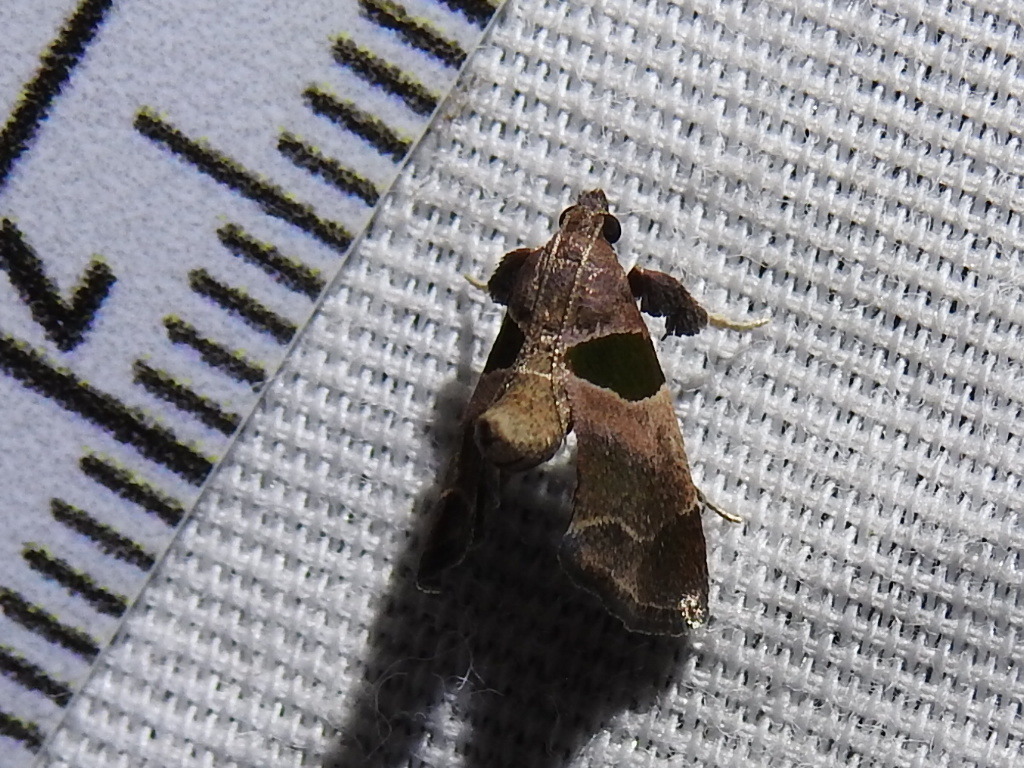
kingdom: Animalia
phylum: Arthropoda
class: Insecta
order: Lepidoptera
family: Pyralidae
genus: Tosale
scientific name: Tosale oviplagalis
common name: Dimorphic tosale moth
